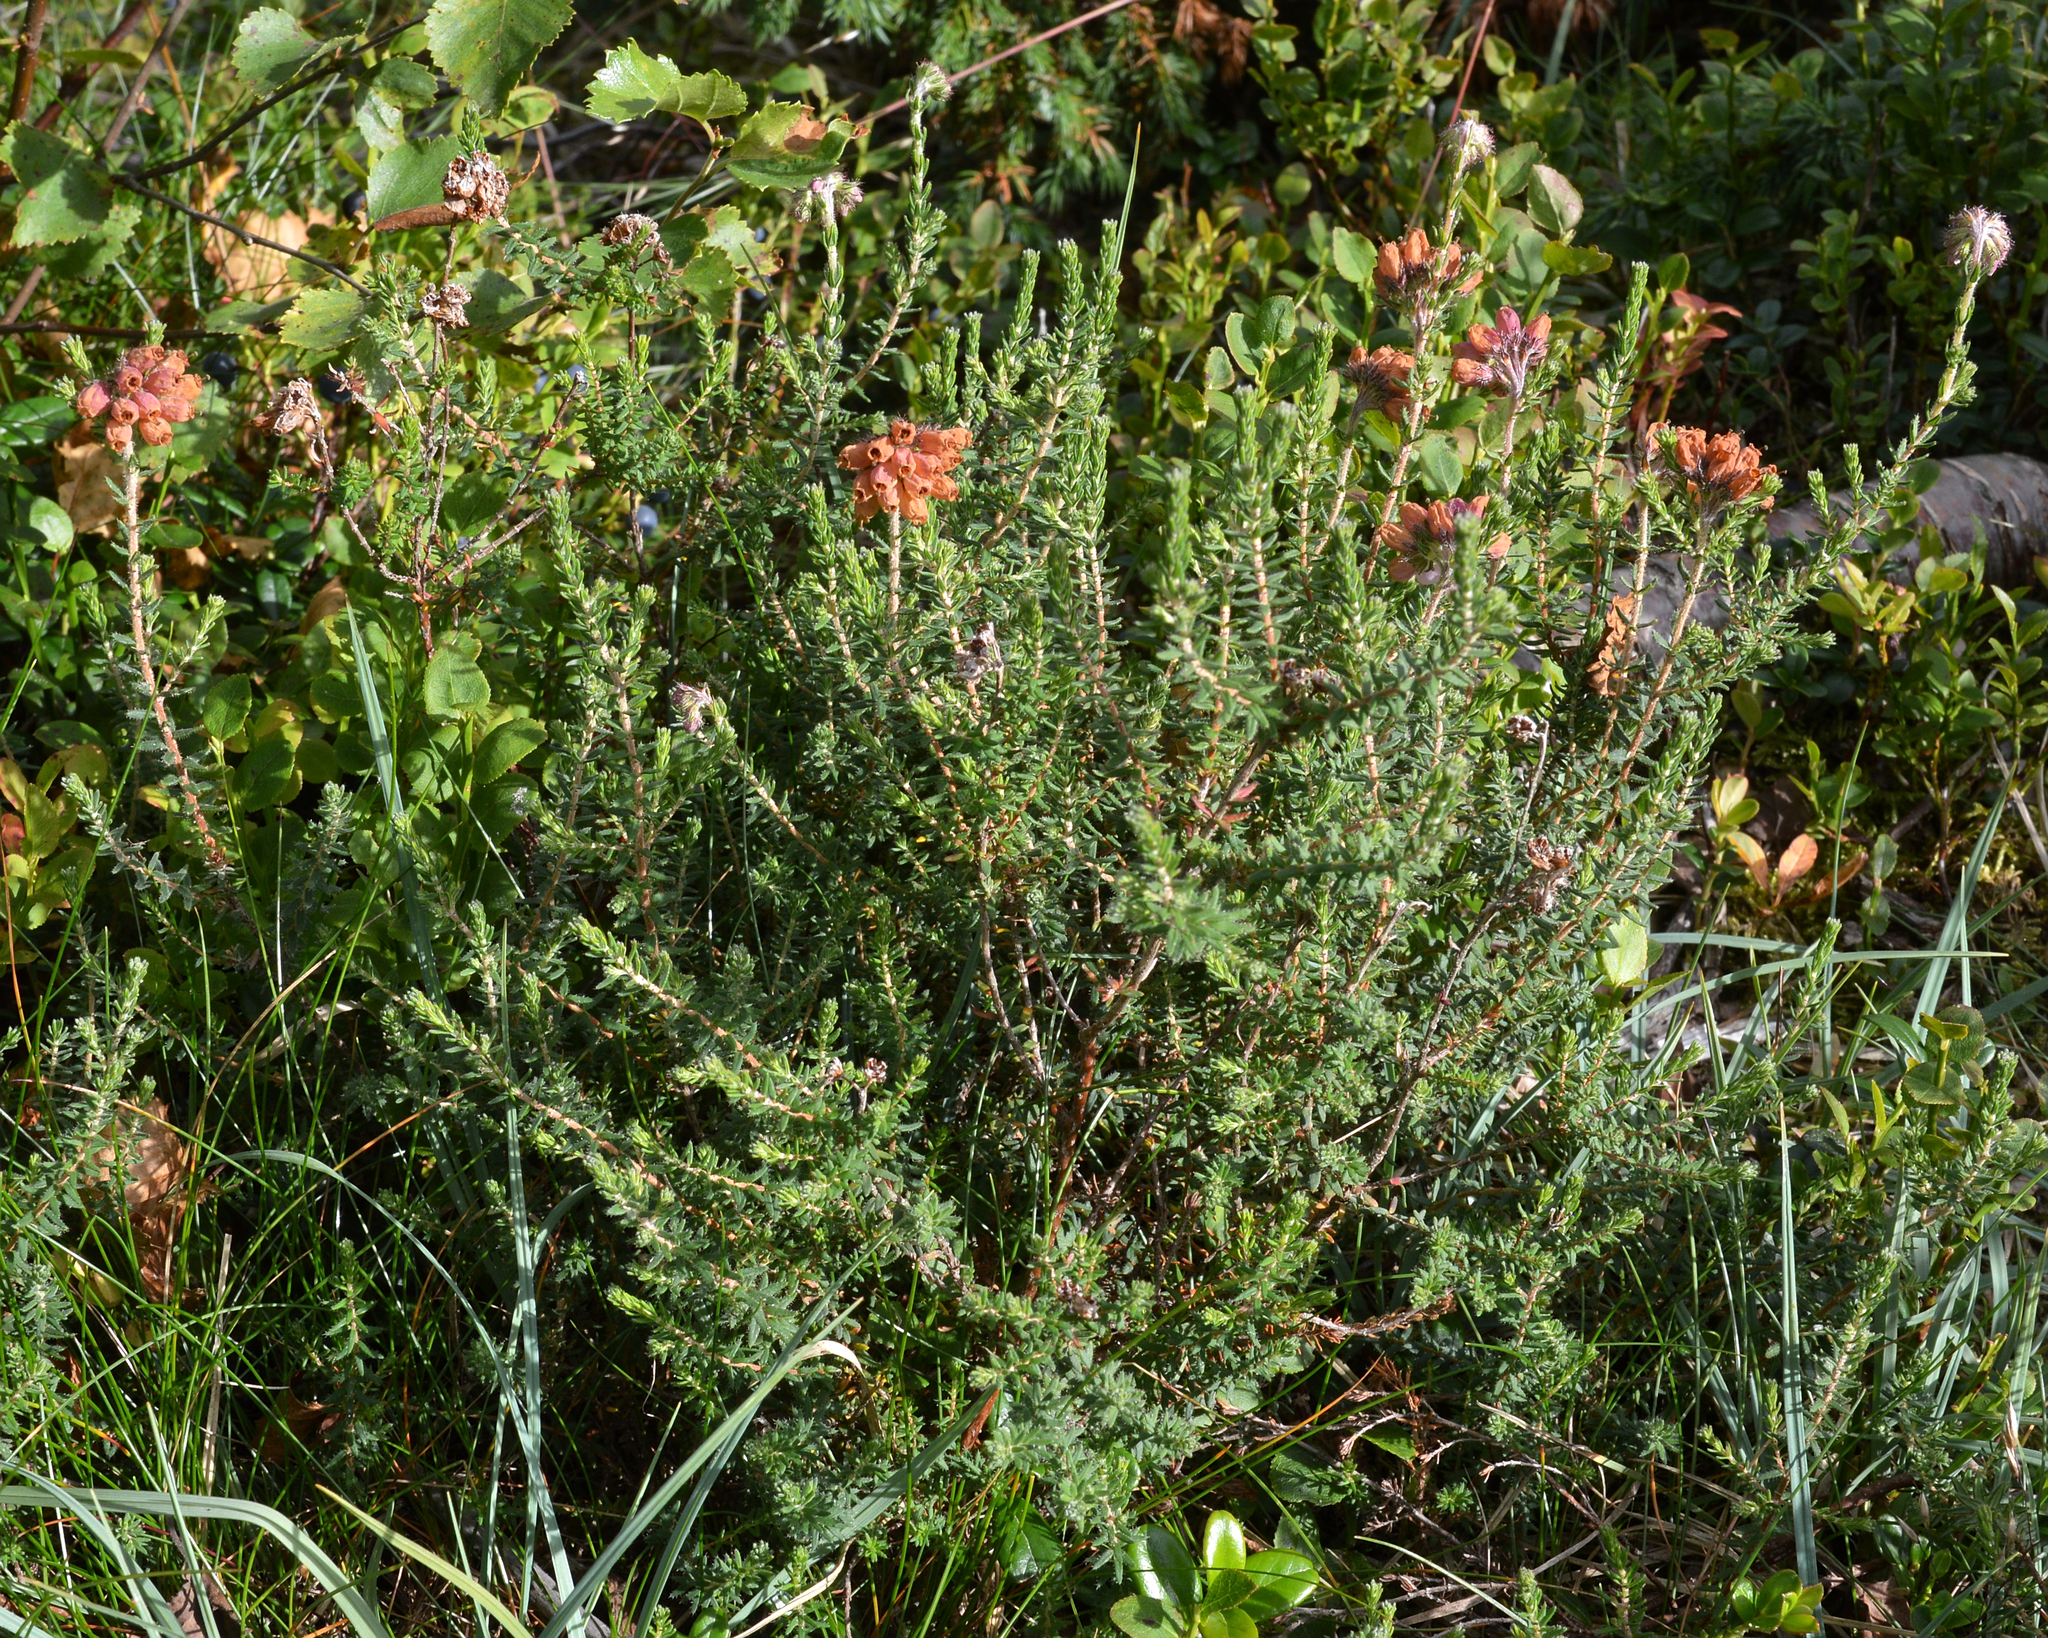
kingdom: Plantae
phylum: Tracheophyta
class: Magnoliopsida
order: Ericales
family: Ericaceae
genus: Erica
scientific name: Erica tetralix
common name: Cross-leaved heath
